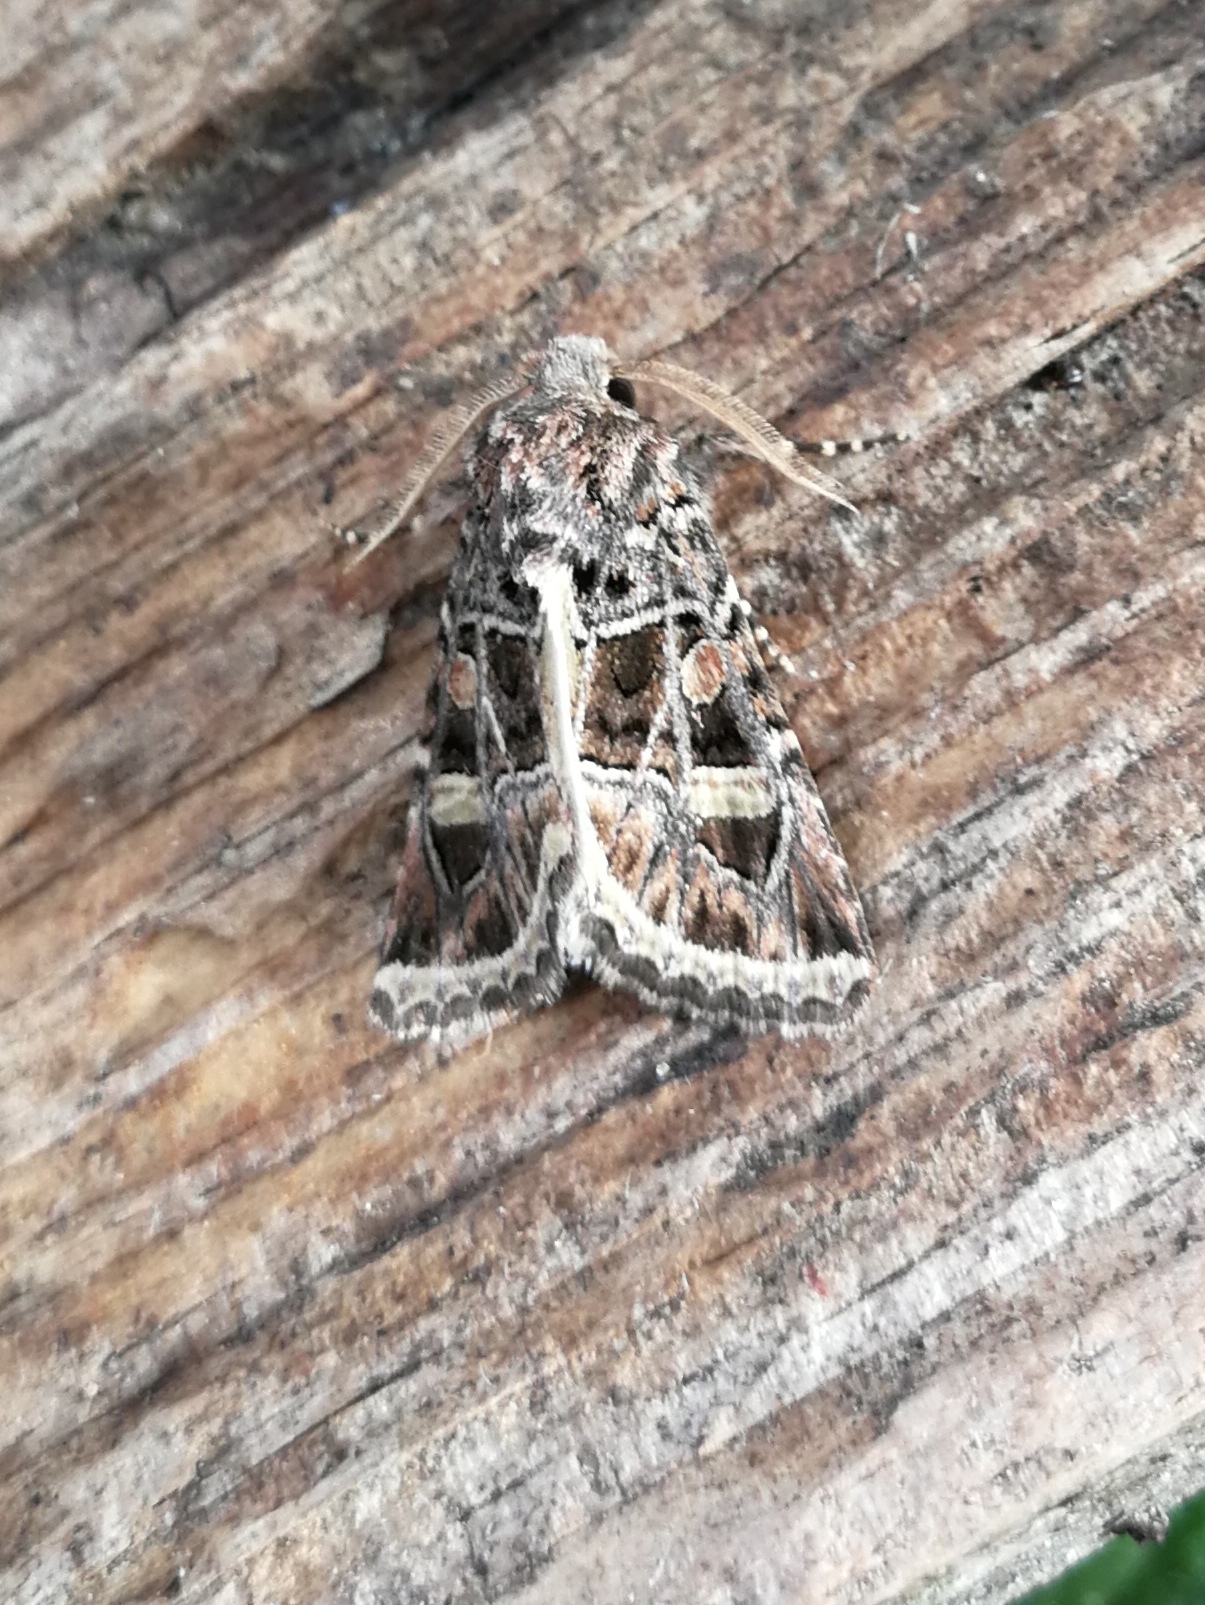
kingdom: Animalia
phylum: Arthropoda
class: Insecta
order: Lepidoptera
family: Noctuidae
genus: Leucochlaena
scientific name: Leucochlaena oditis
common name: Beautiful gothic
